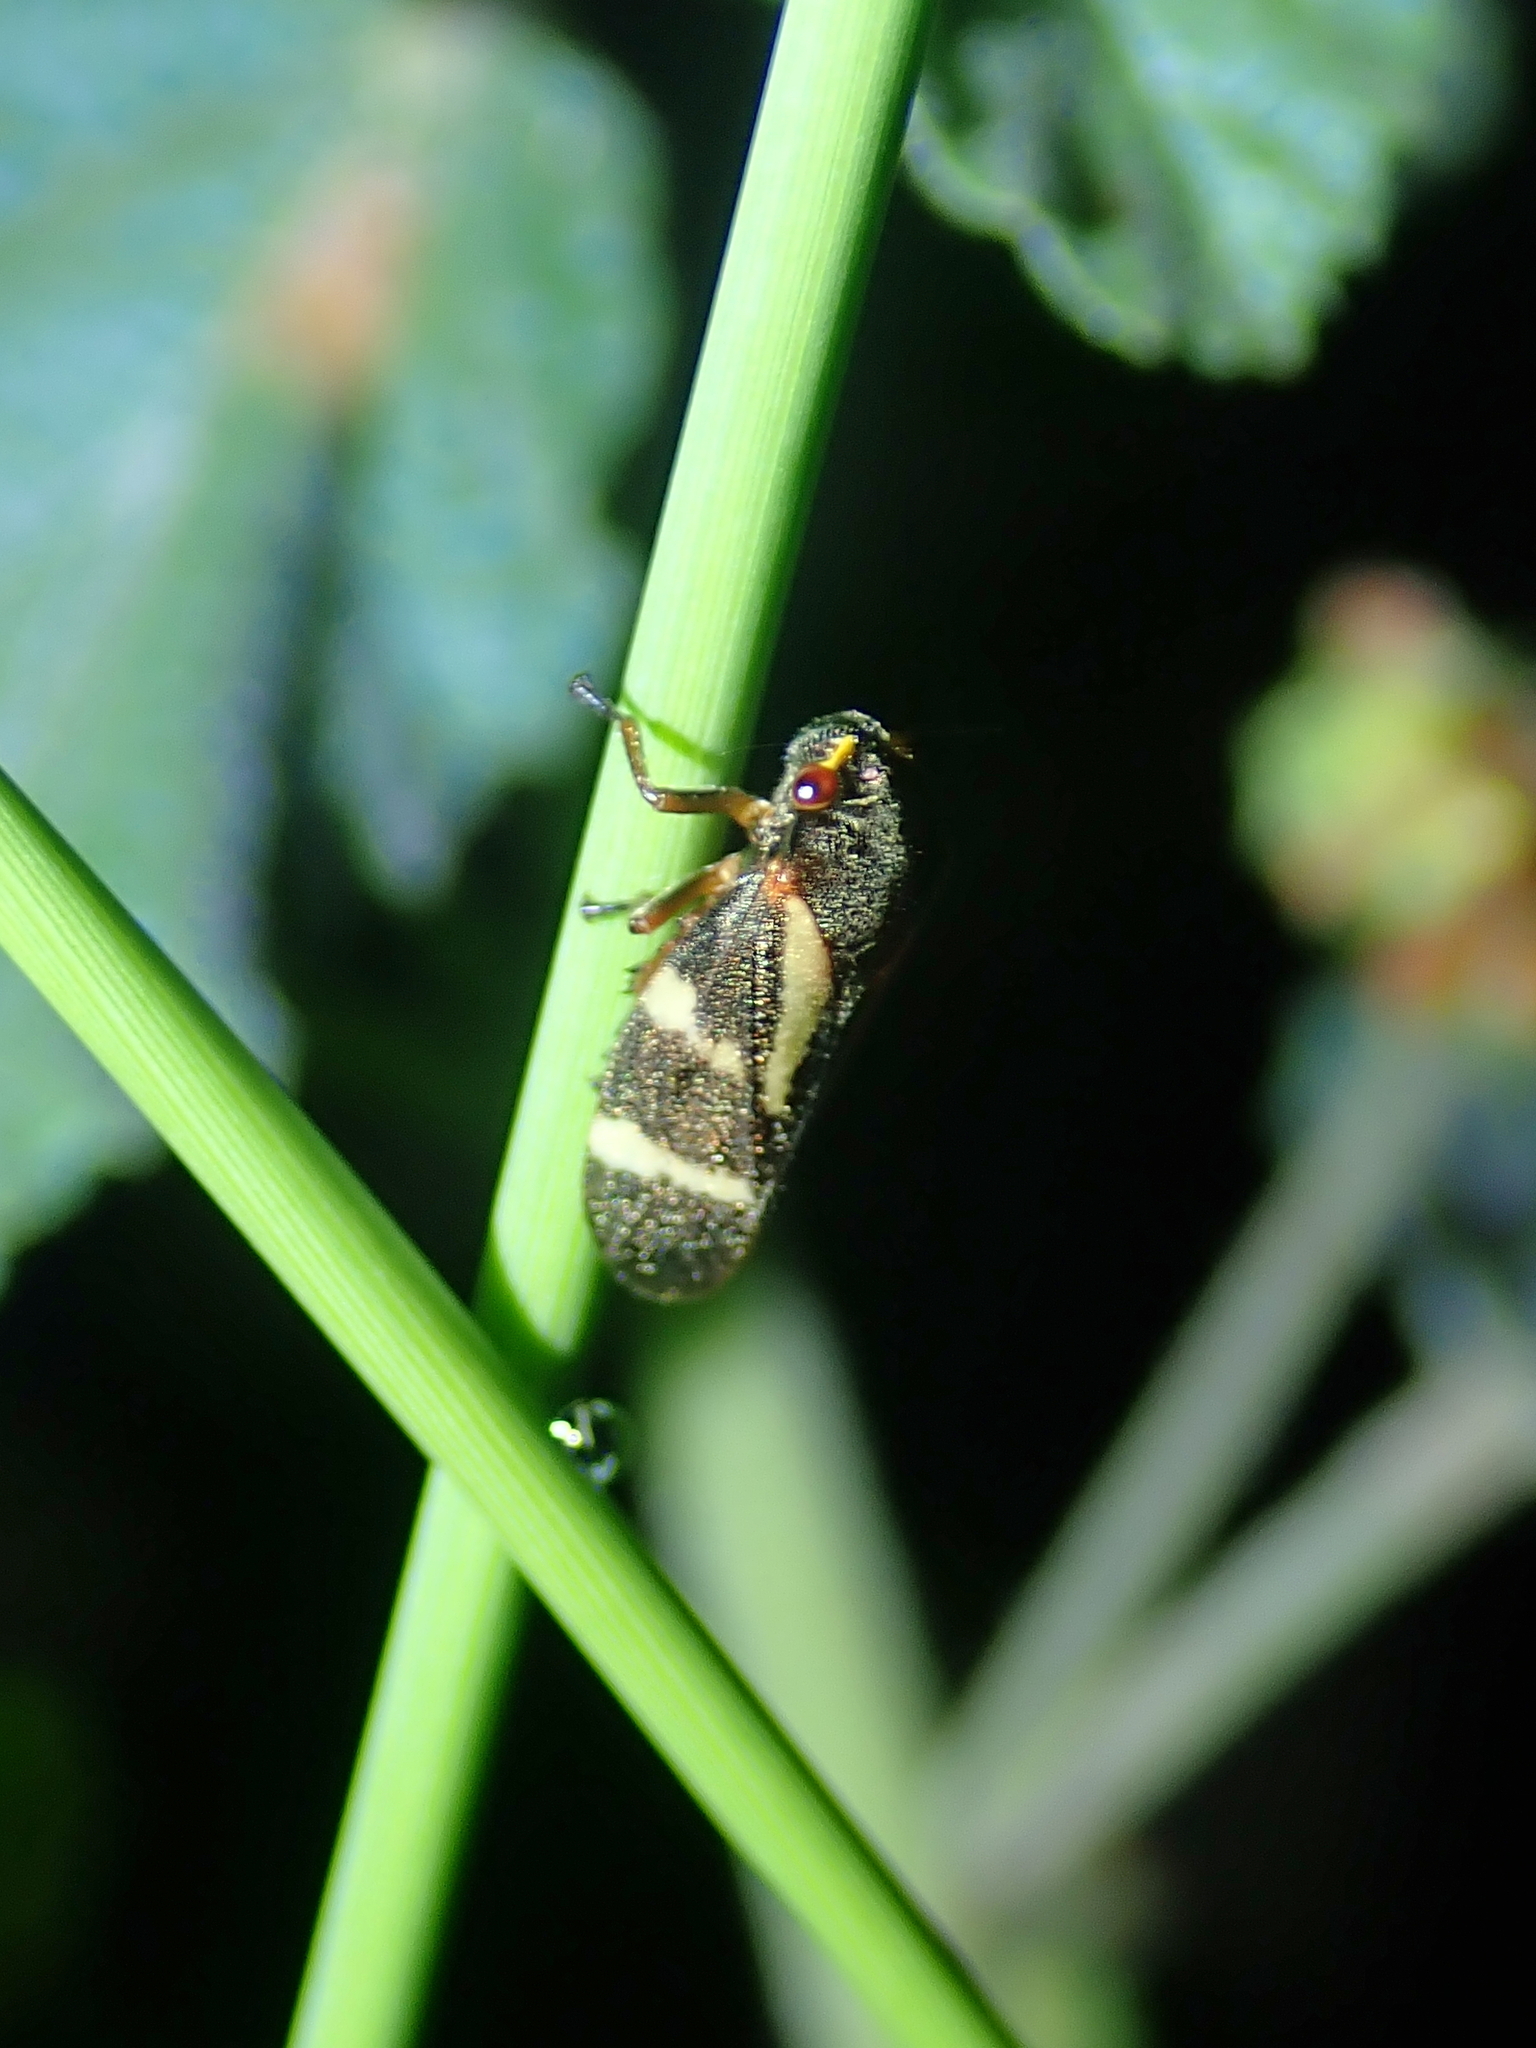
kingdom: Animalia
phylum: Arthropoda
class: Insecta
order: Hemiptera
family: Cercopidae
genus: Deois
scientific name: Deois flavopicta
